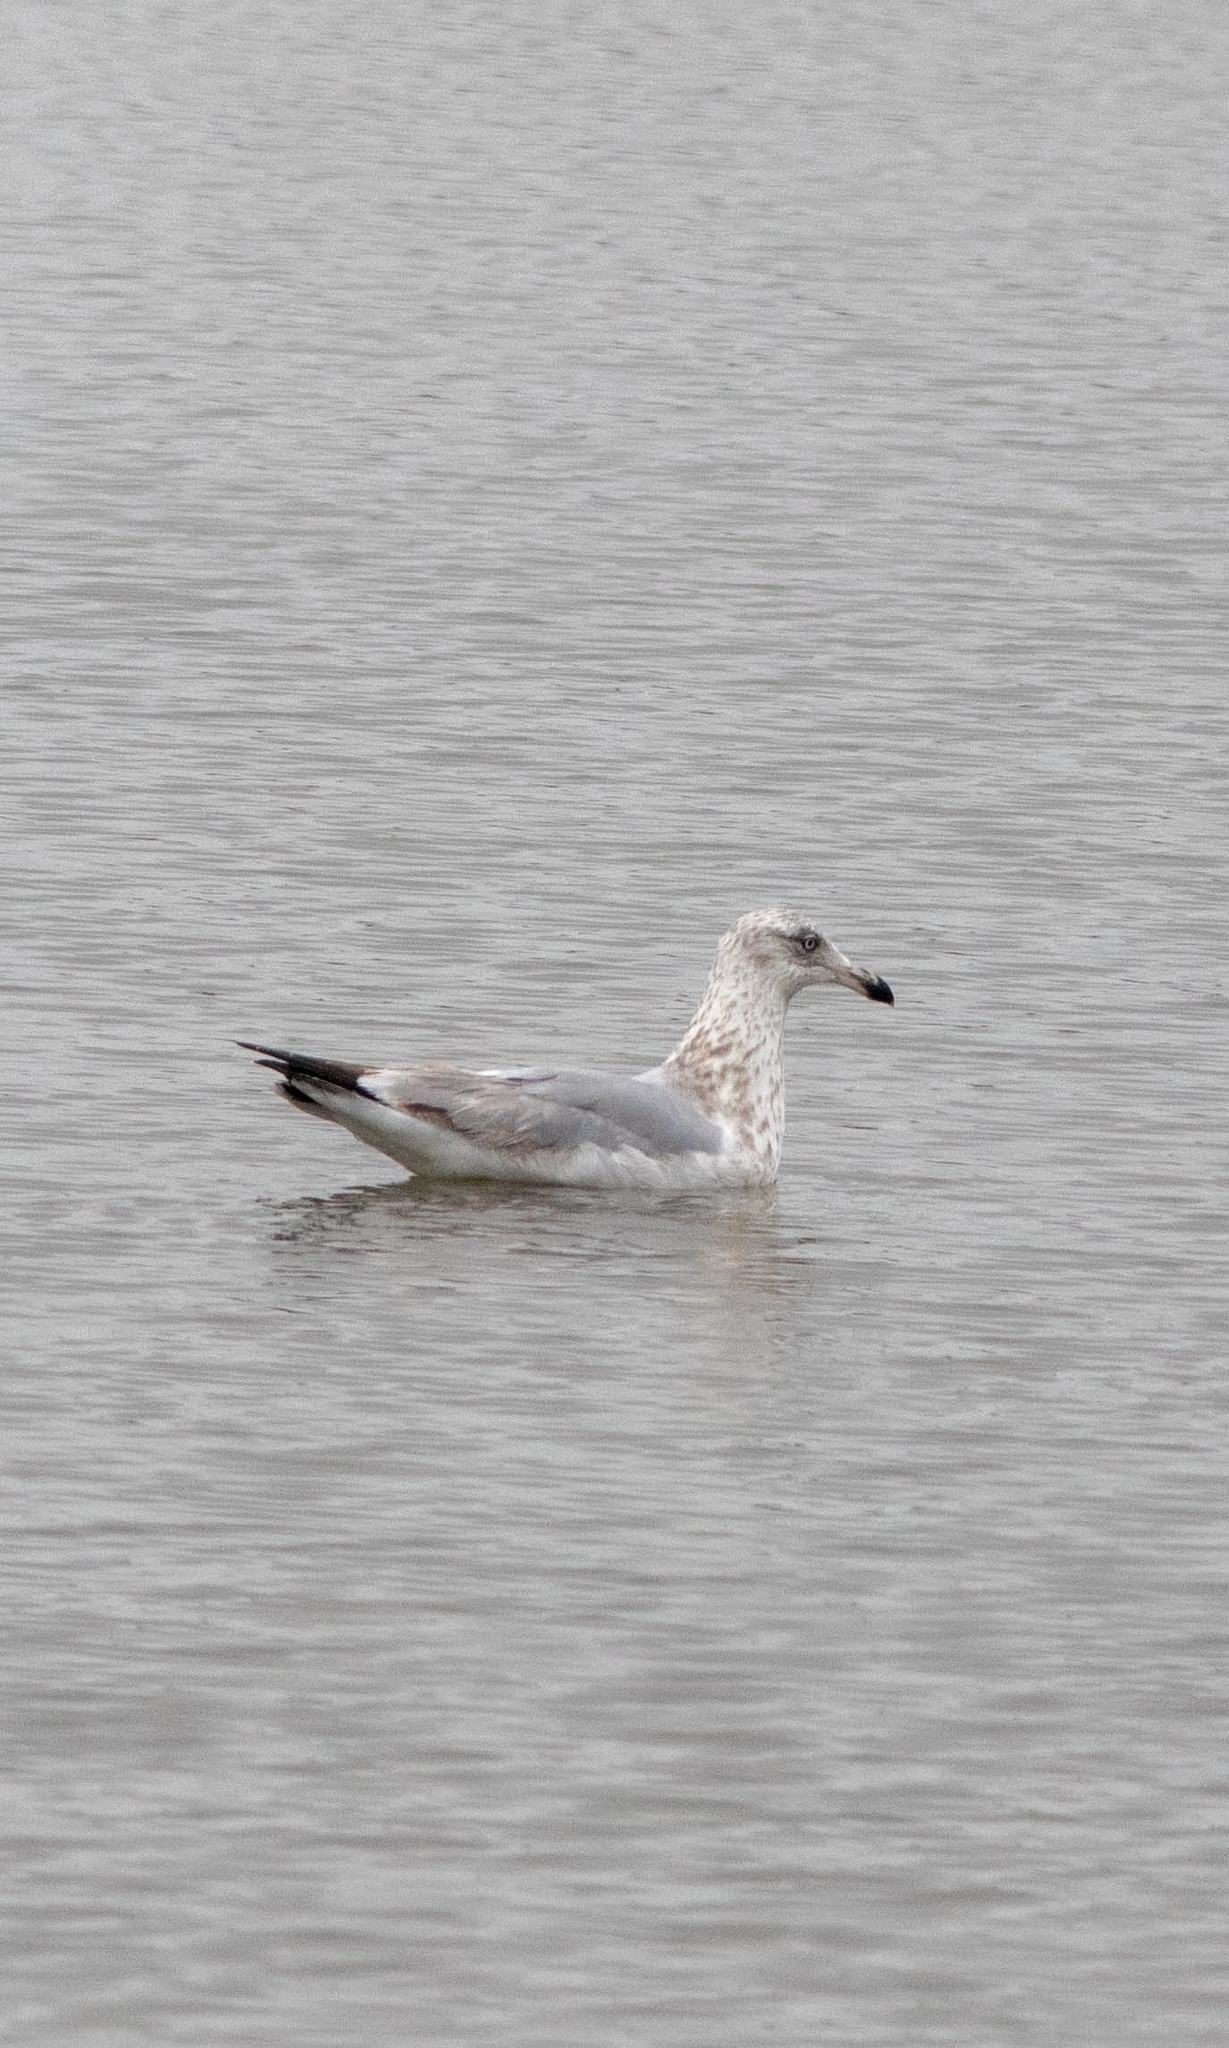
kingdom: Animalia
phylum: Chordata
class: Aves
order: Charadriiformes
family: Laridae
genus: Larus
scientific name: Larus argentatus
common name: Herring gull
